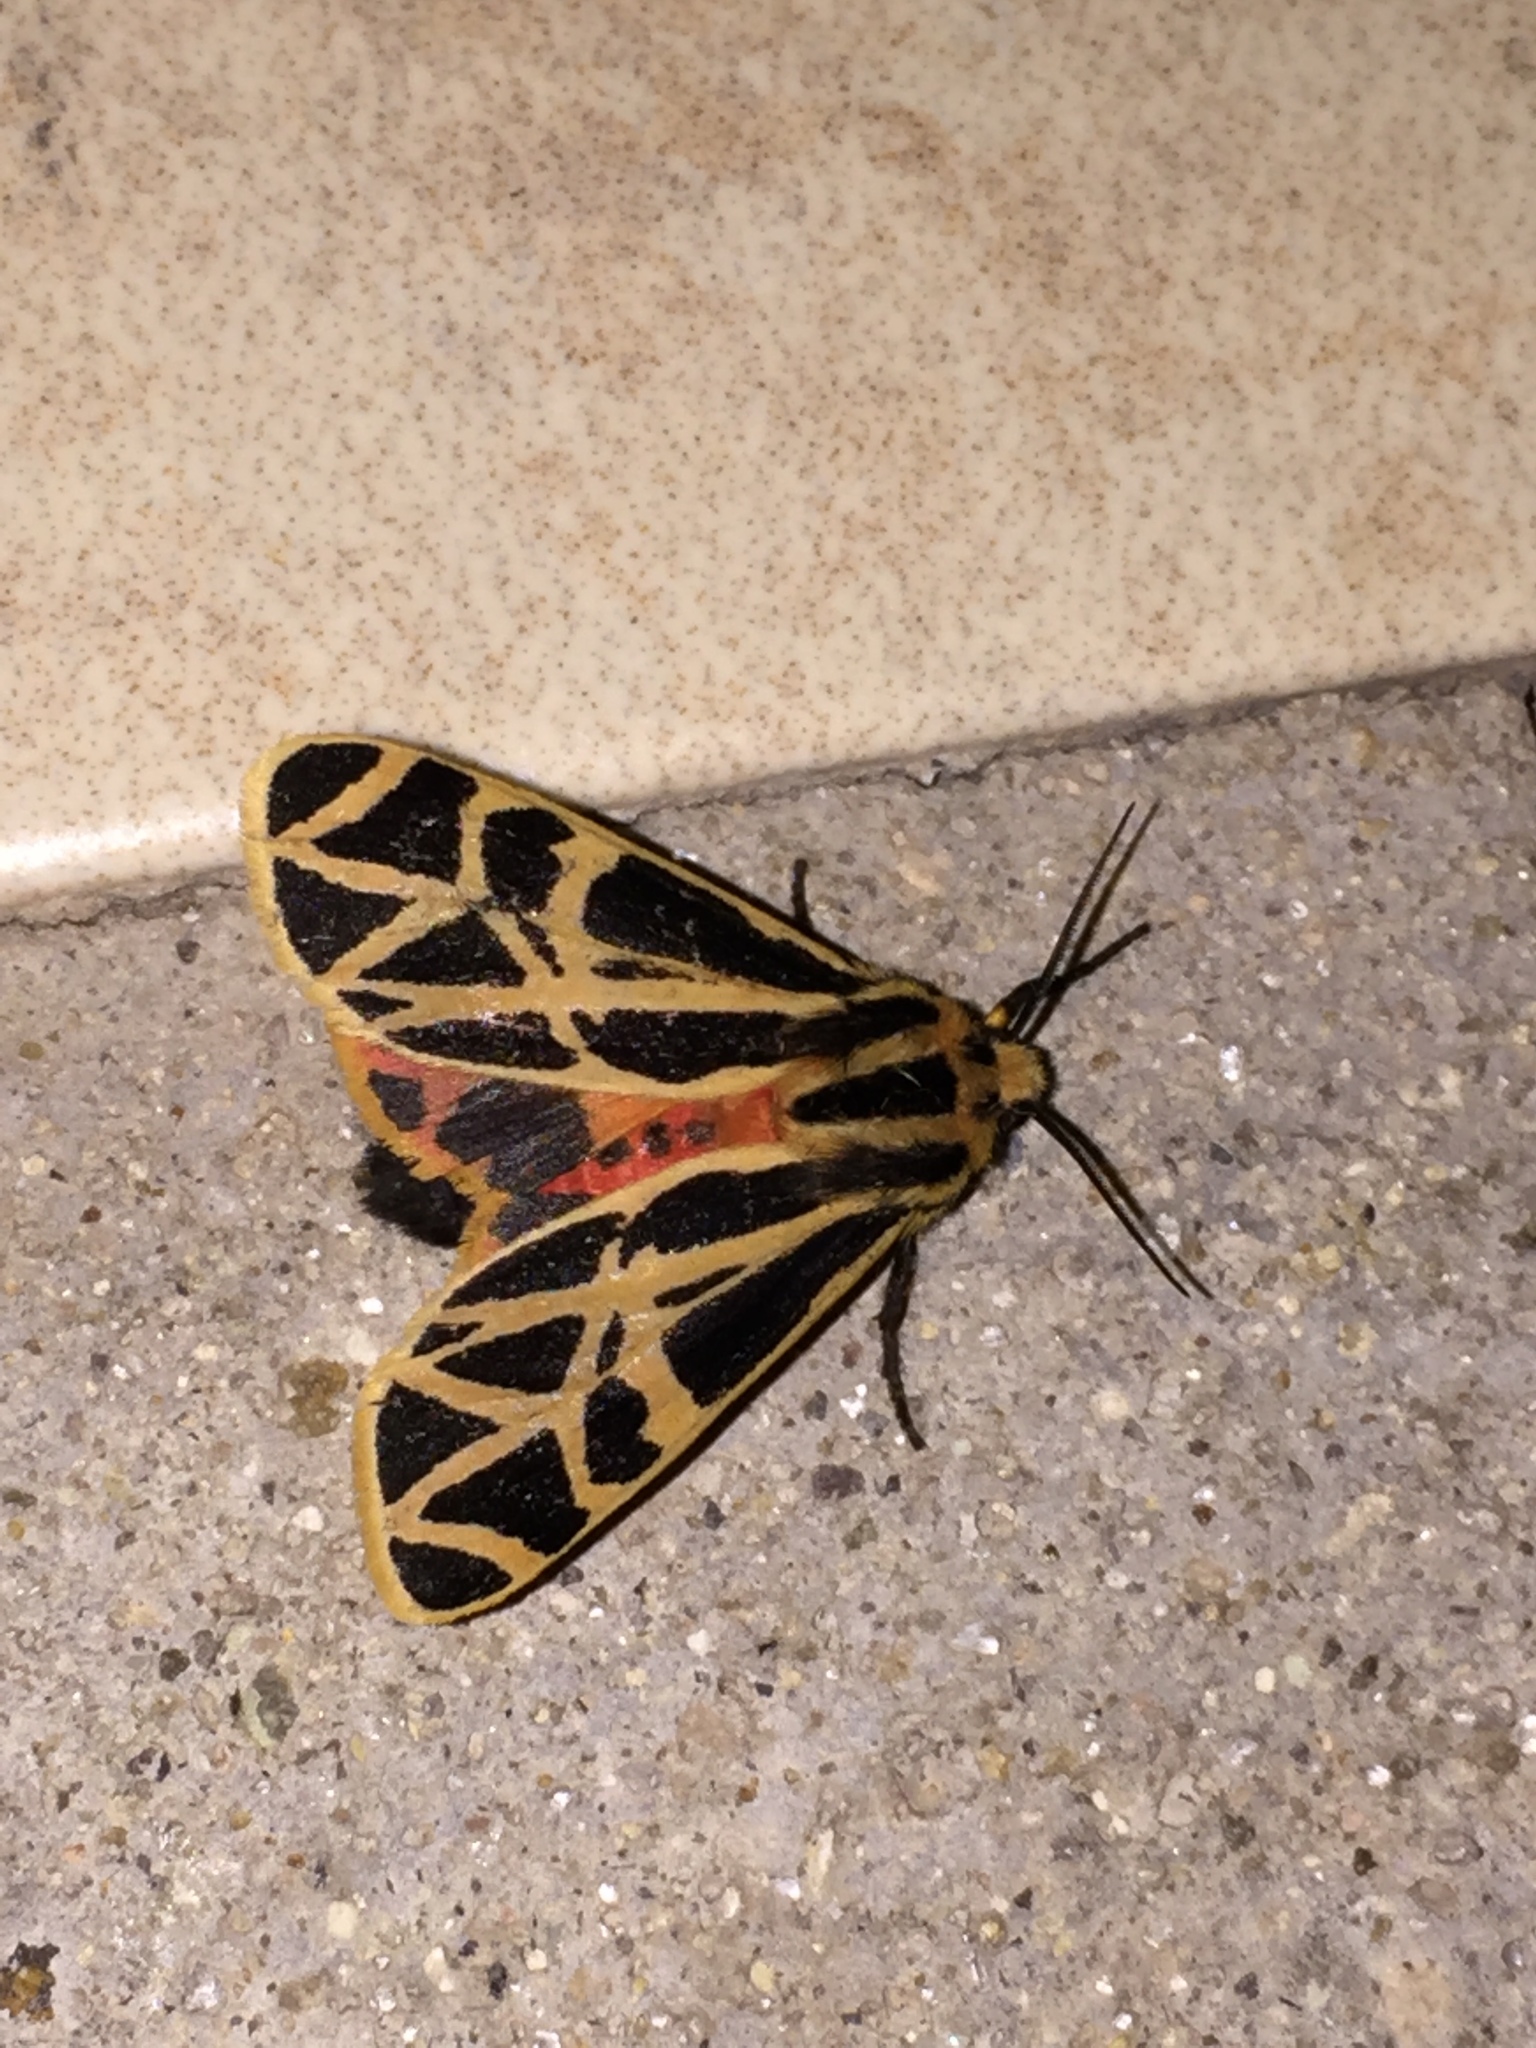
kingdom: Animalia
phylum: Arthropoda
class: Insecta
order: Lepidoptera
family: Erebidae
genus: Apantesis
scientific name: Apantesis
